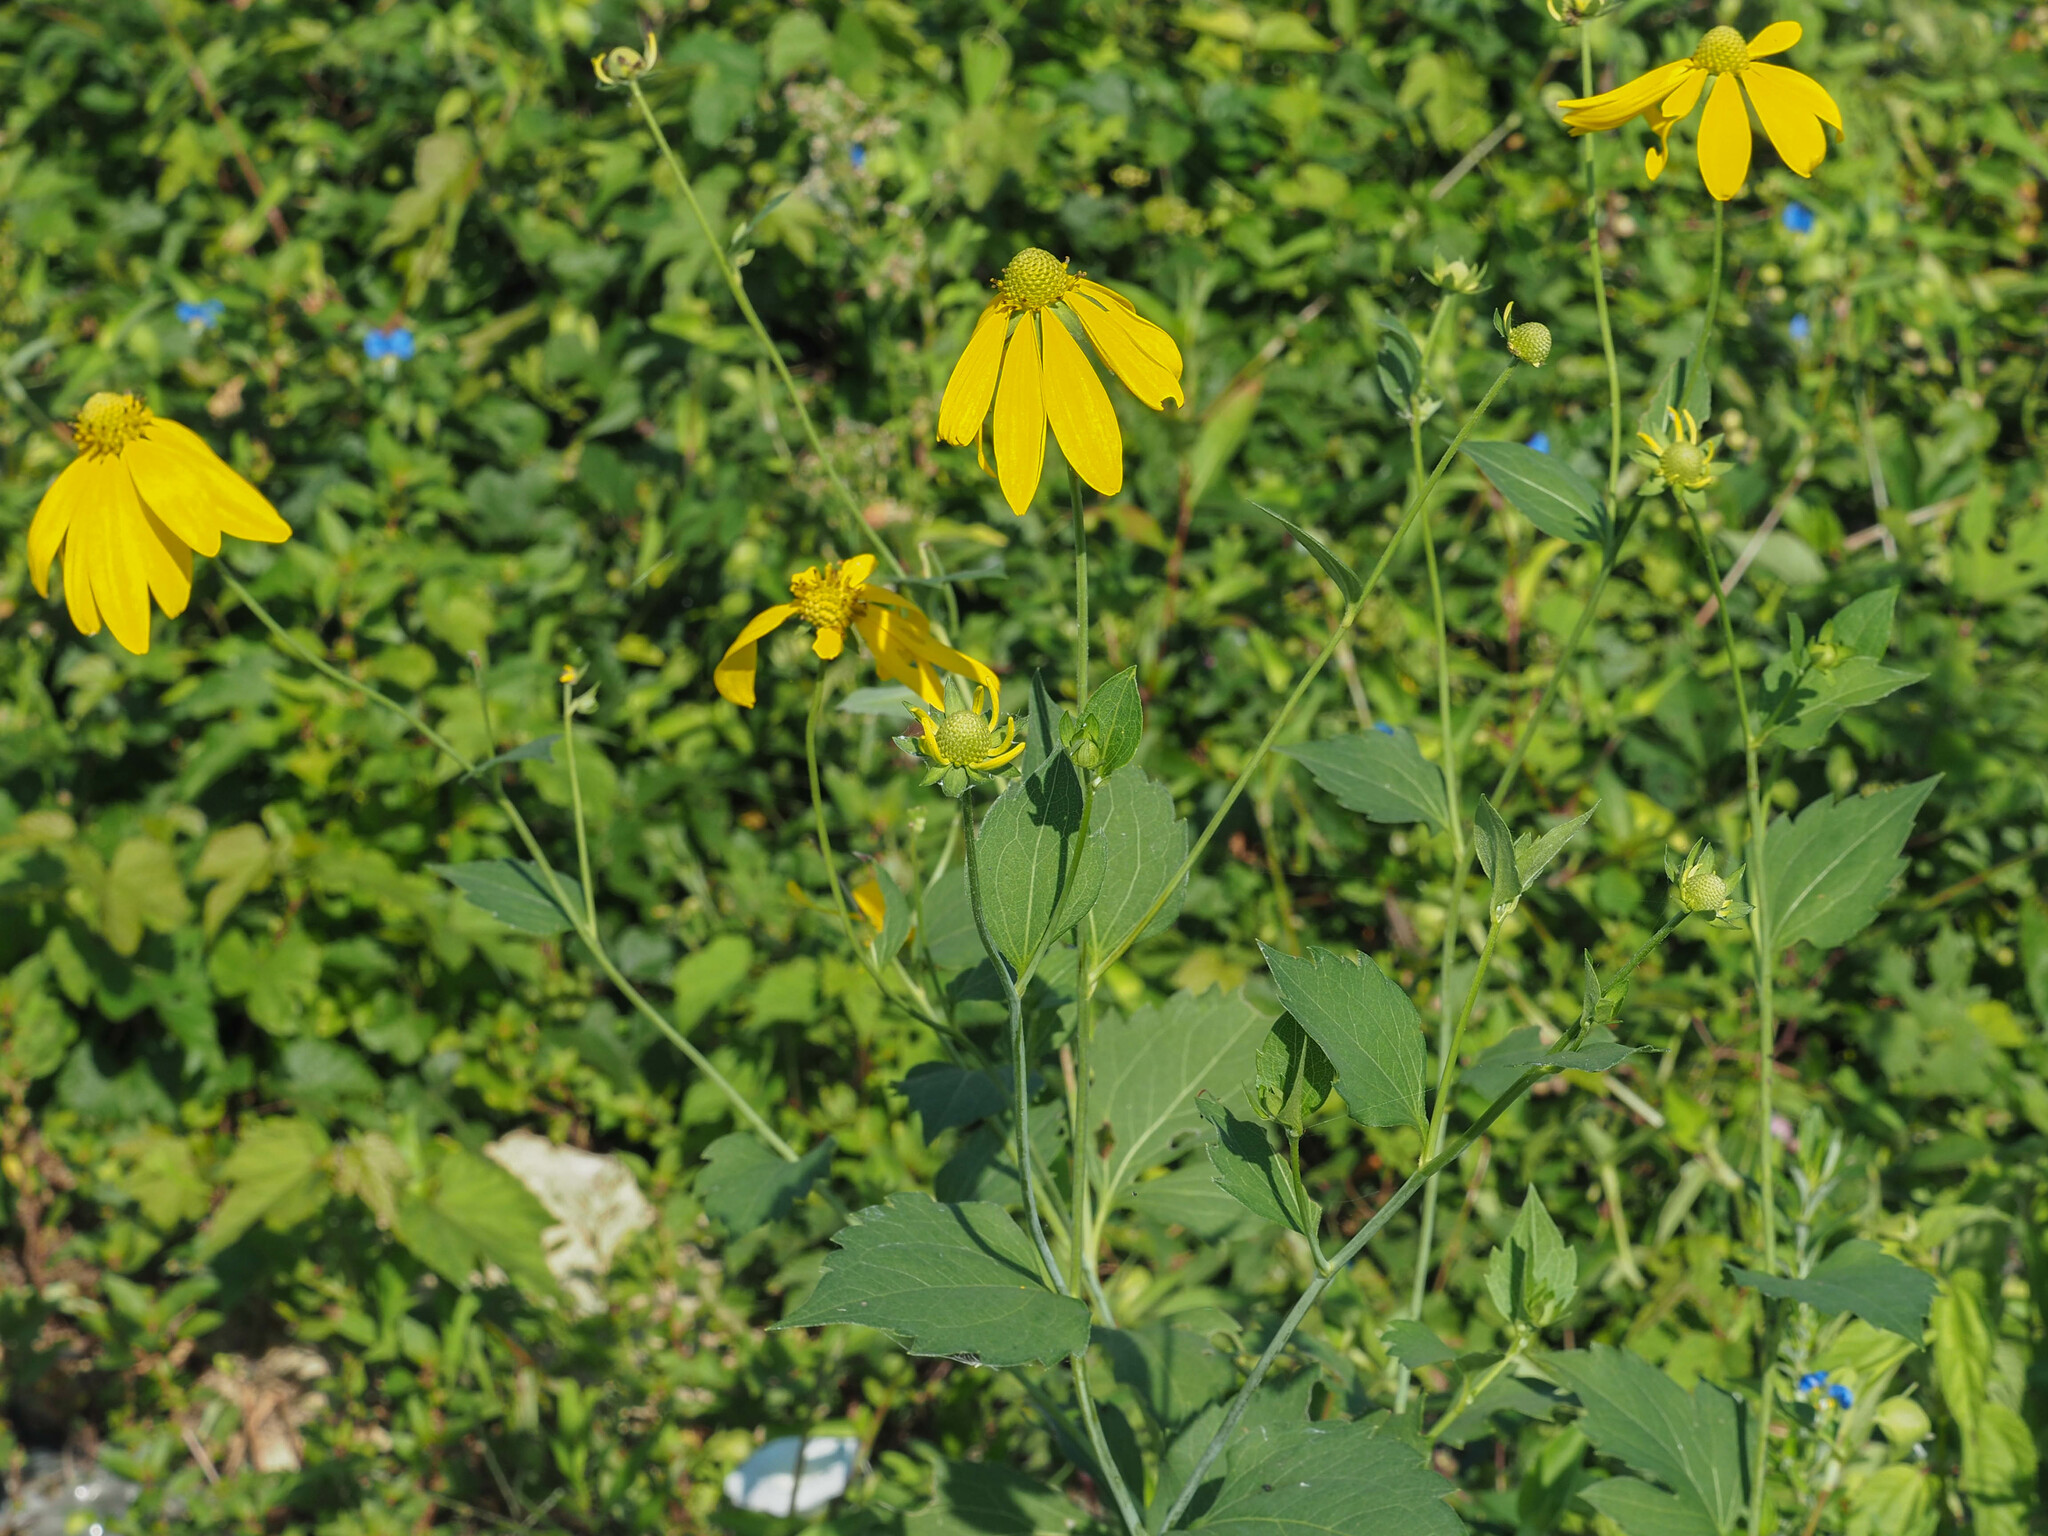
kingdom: Plantae
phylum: Tracheophyta
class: Magnoliopsida
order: Asterales
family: Asteraceae
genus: Rudbeckia
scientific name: Rudbeckia laciniata
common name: Coneflower
